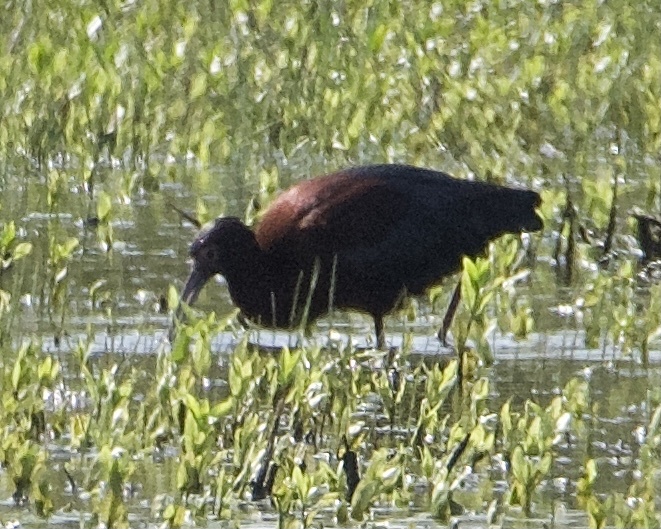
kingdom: Animalia
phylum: Chordata
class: Aves
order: Pelecaniformes
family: Threskiornithidae
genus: Plegadis
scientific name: Plegadis chihi
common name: White-faced ibis
